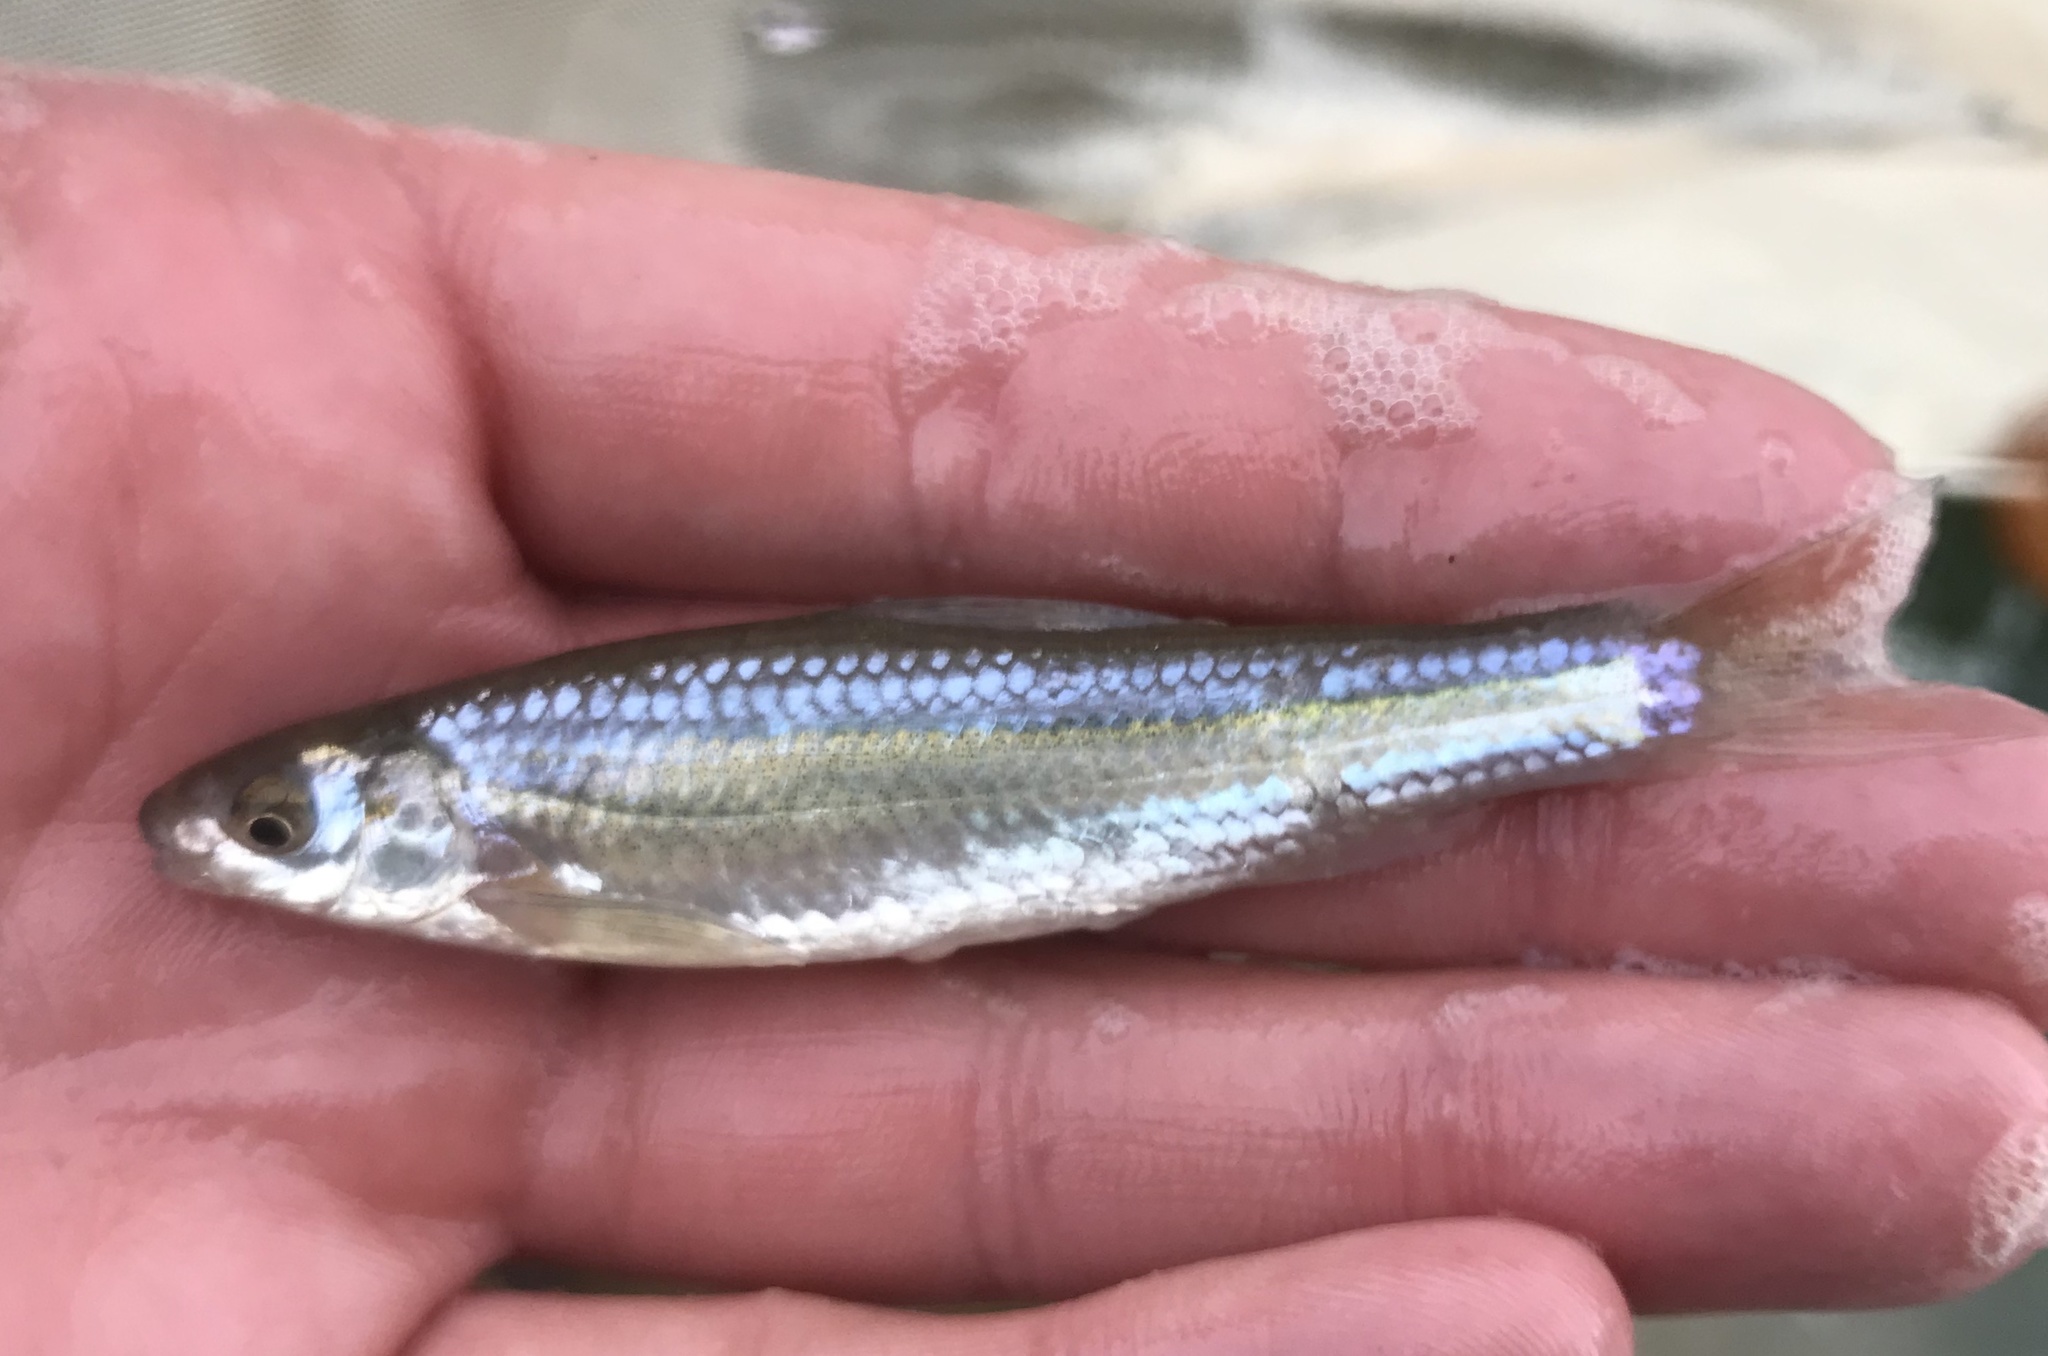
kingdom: Animalia
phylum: Chordata
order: Cypriniformes
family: Cyprinidae
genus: Hybognathus
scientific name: Hybognathus nuchalis
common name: Mississippi silvery minnow
